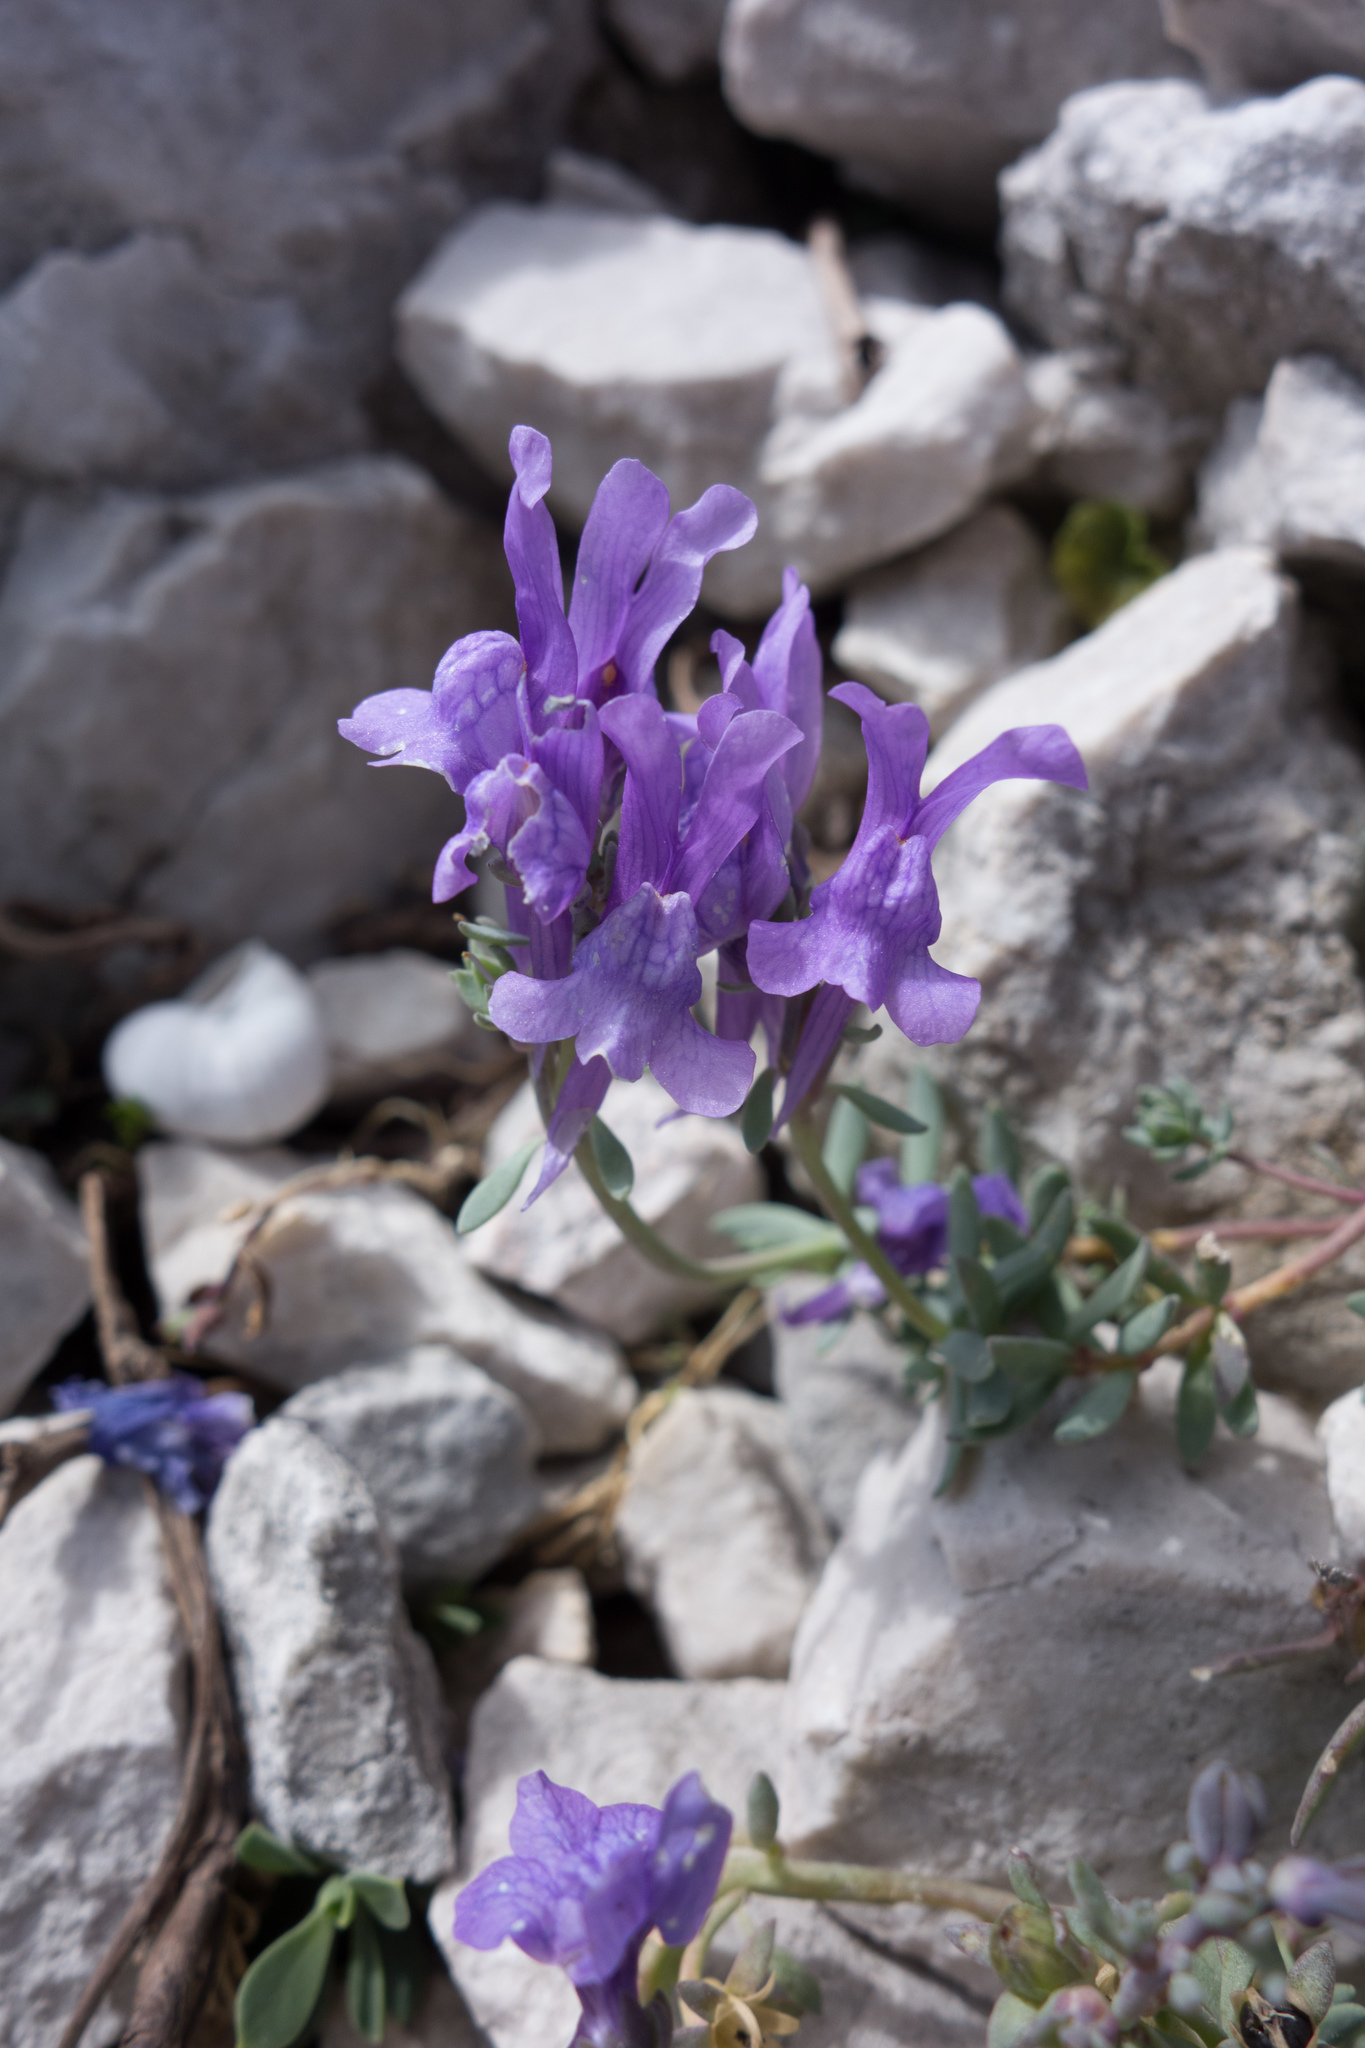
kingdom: Plantae
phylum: Tracheophyta
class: Magnoliopsida
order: Lamiales
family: Plantaginaceae
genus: Linaria
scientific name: Linaria alpina
